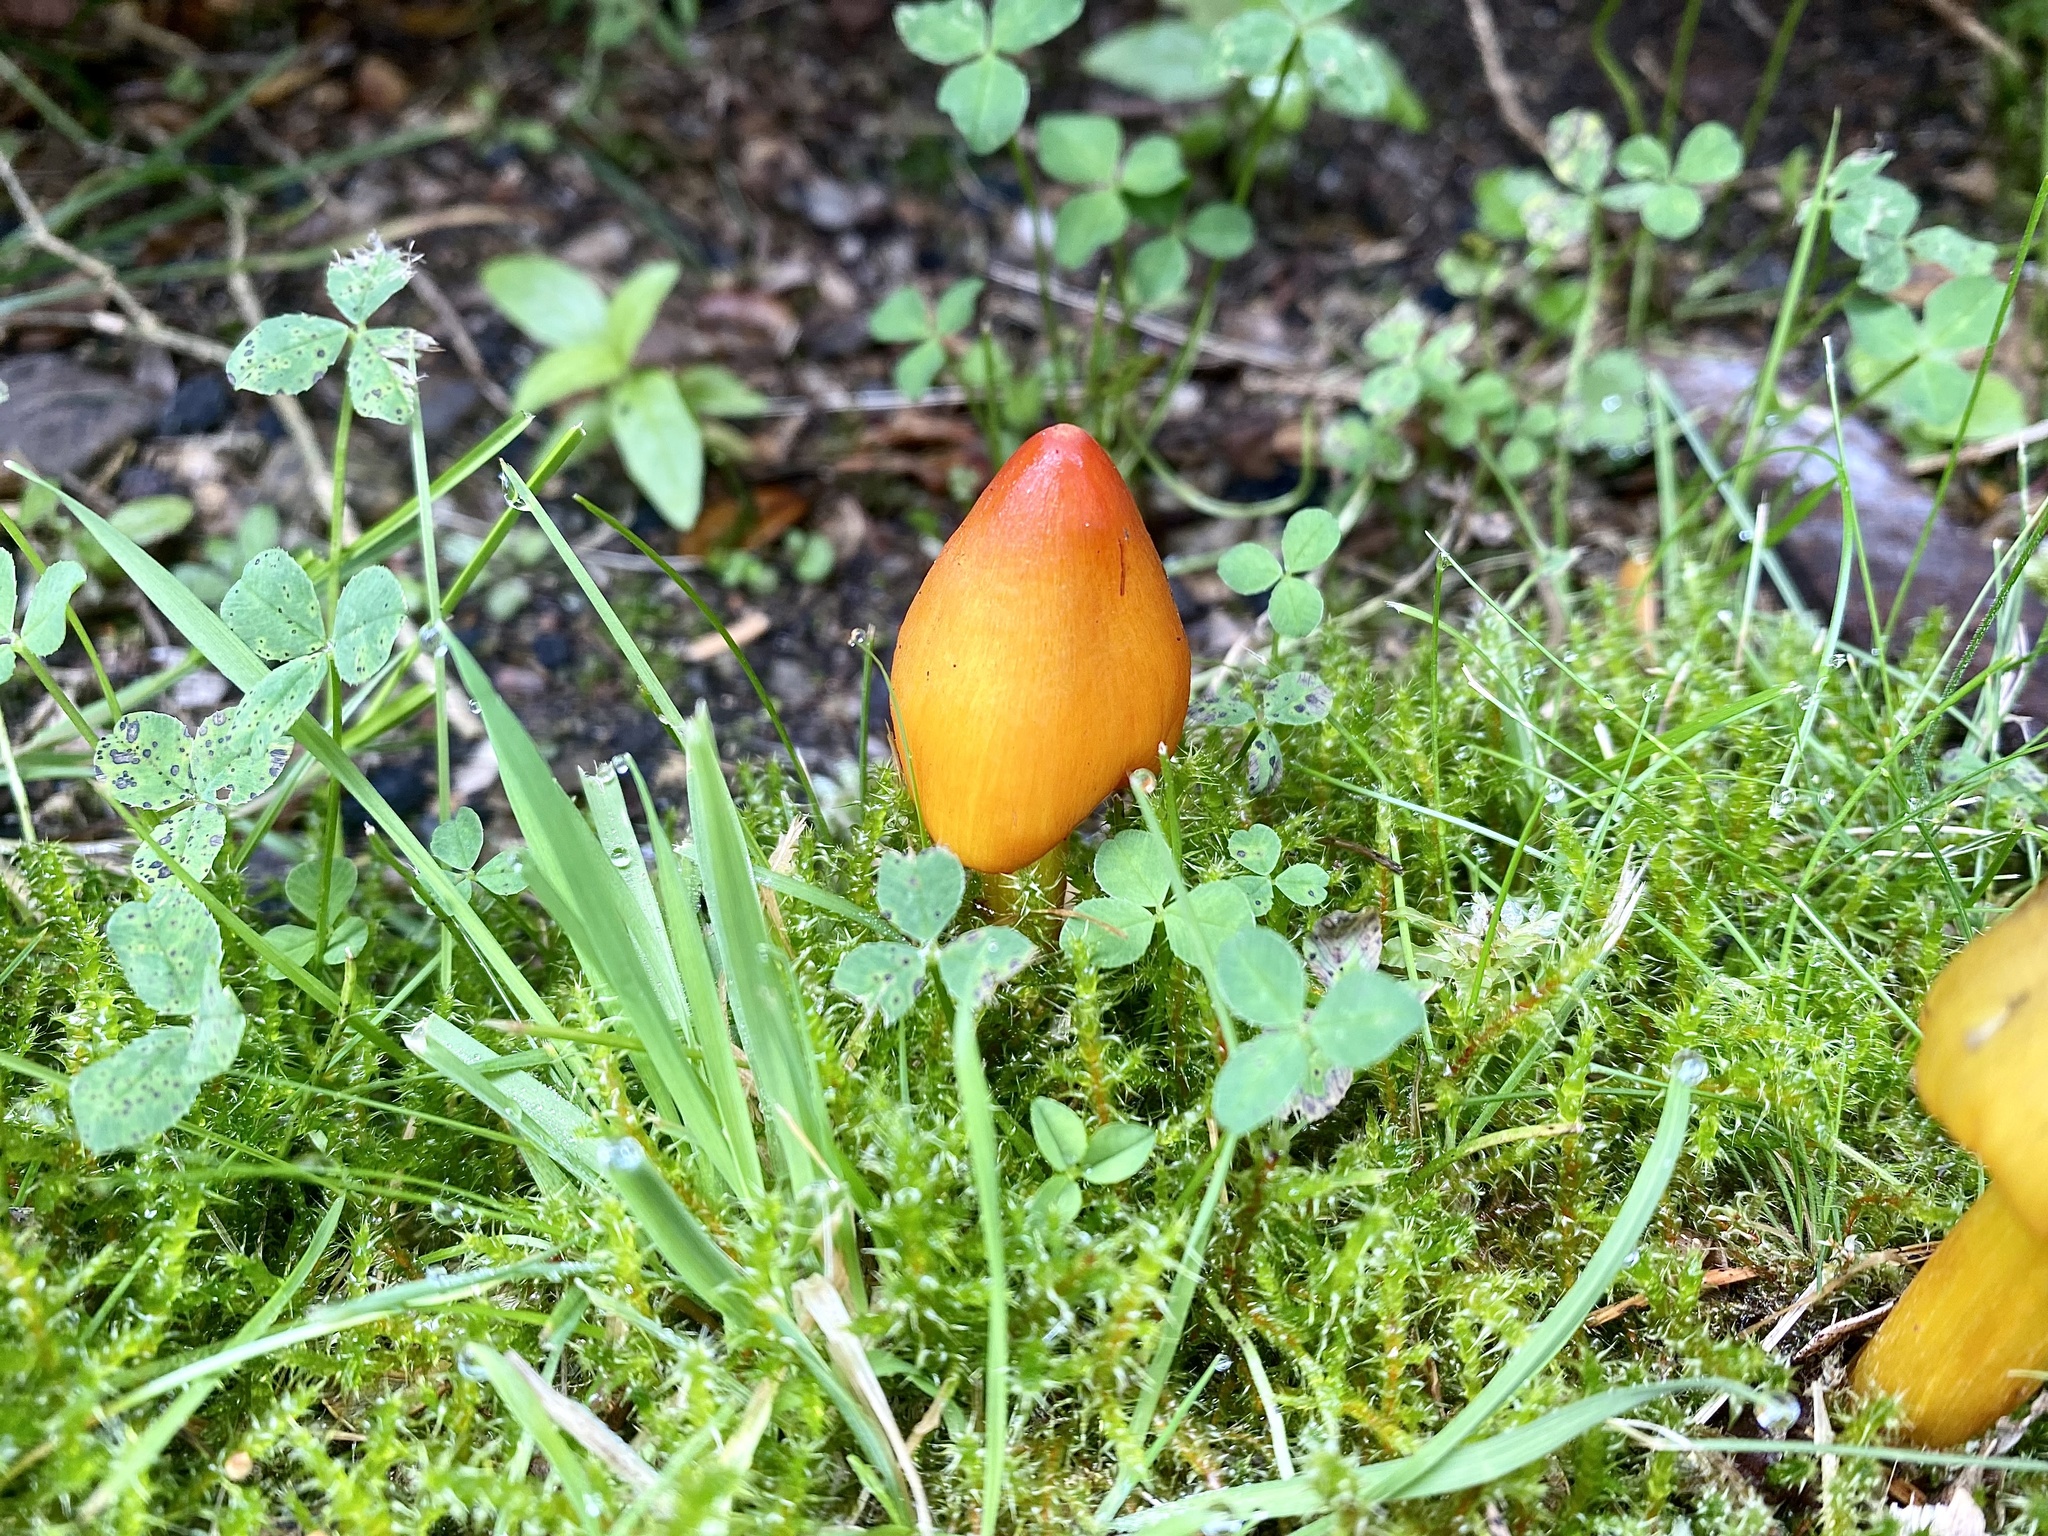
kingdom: Fungi
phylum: Basidiomycota
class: Agaricomycetes
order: Agaricales
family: Hygrophoraceae
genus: Hygrocybe
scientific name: Hygrocybe conica
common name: Blackening wax-cap
